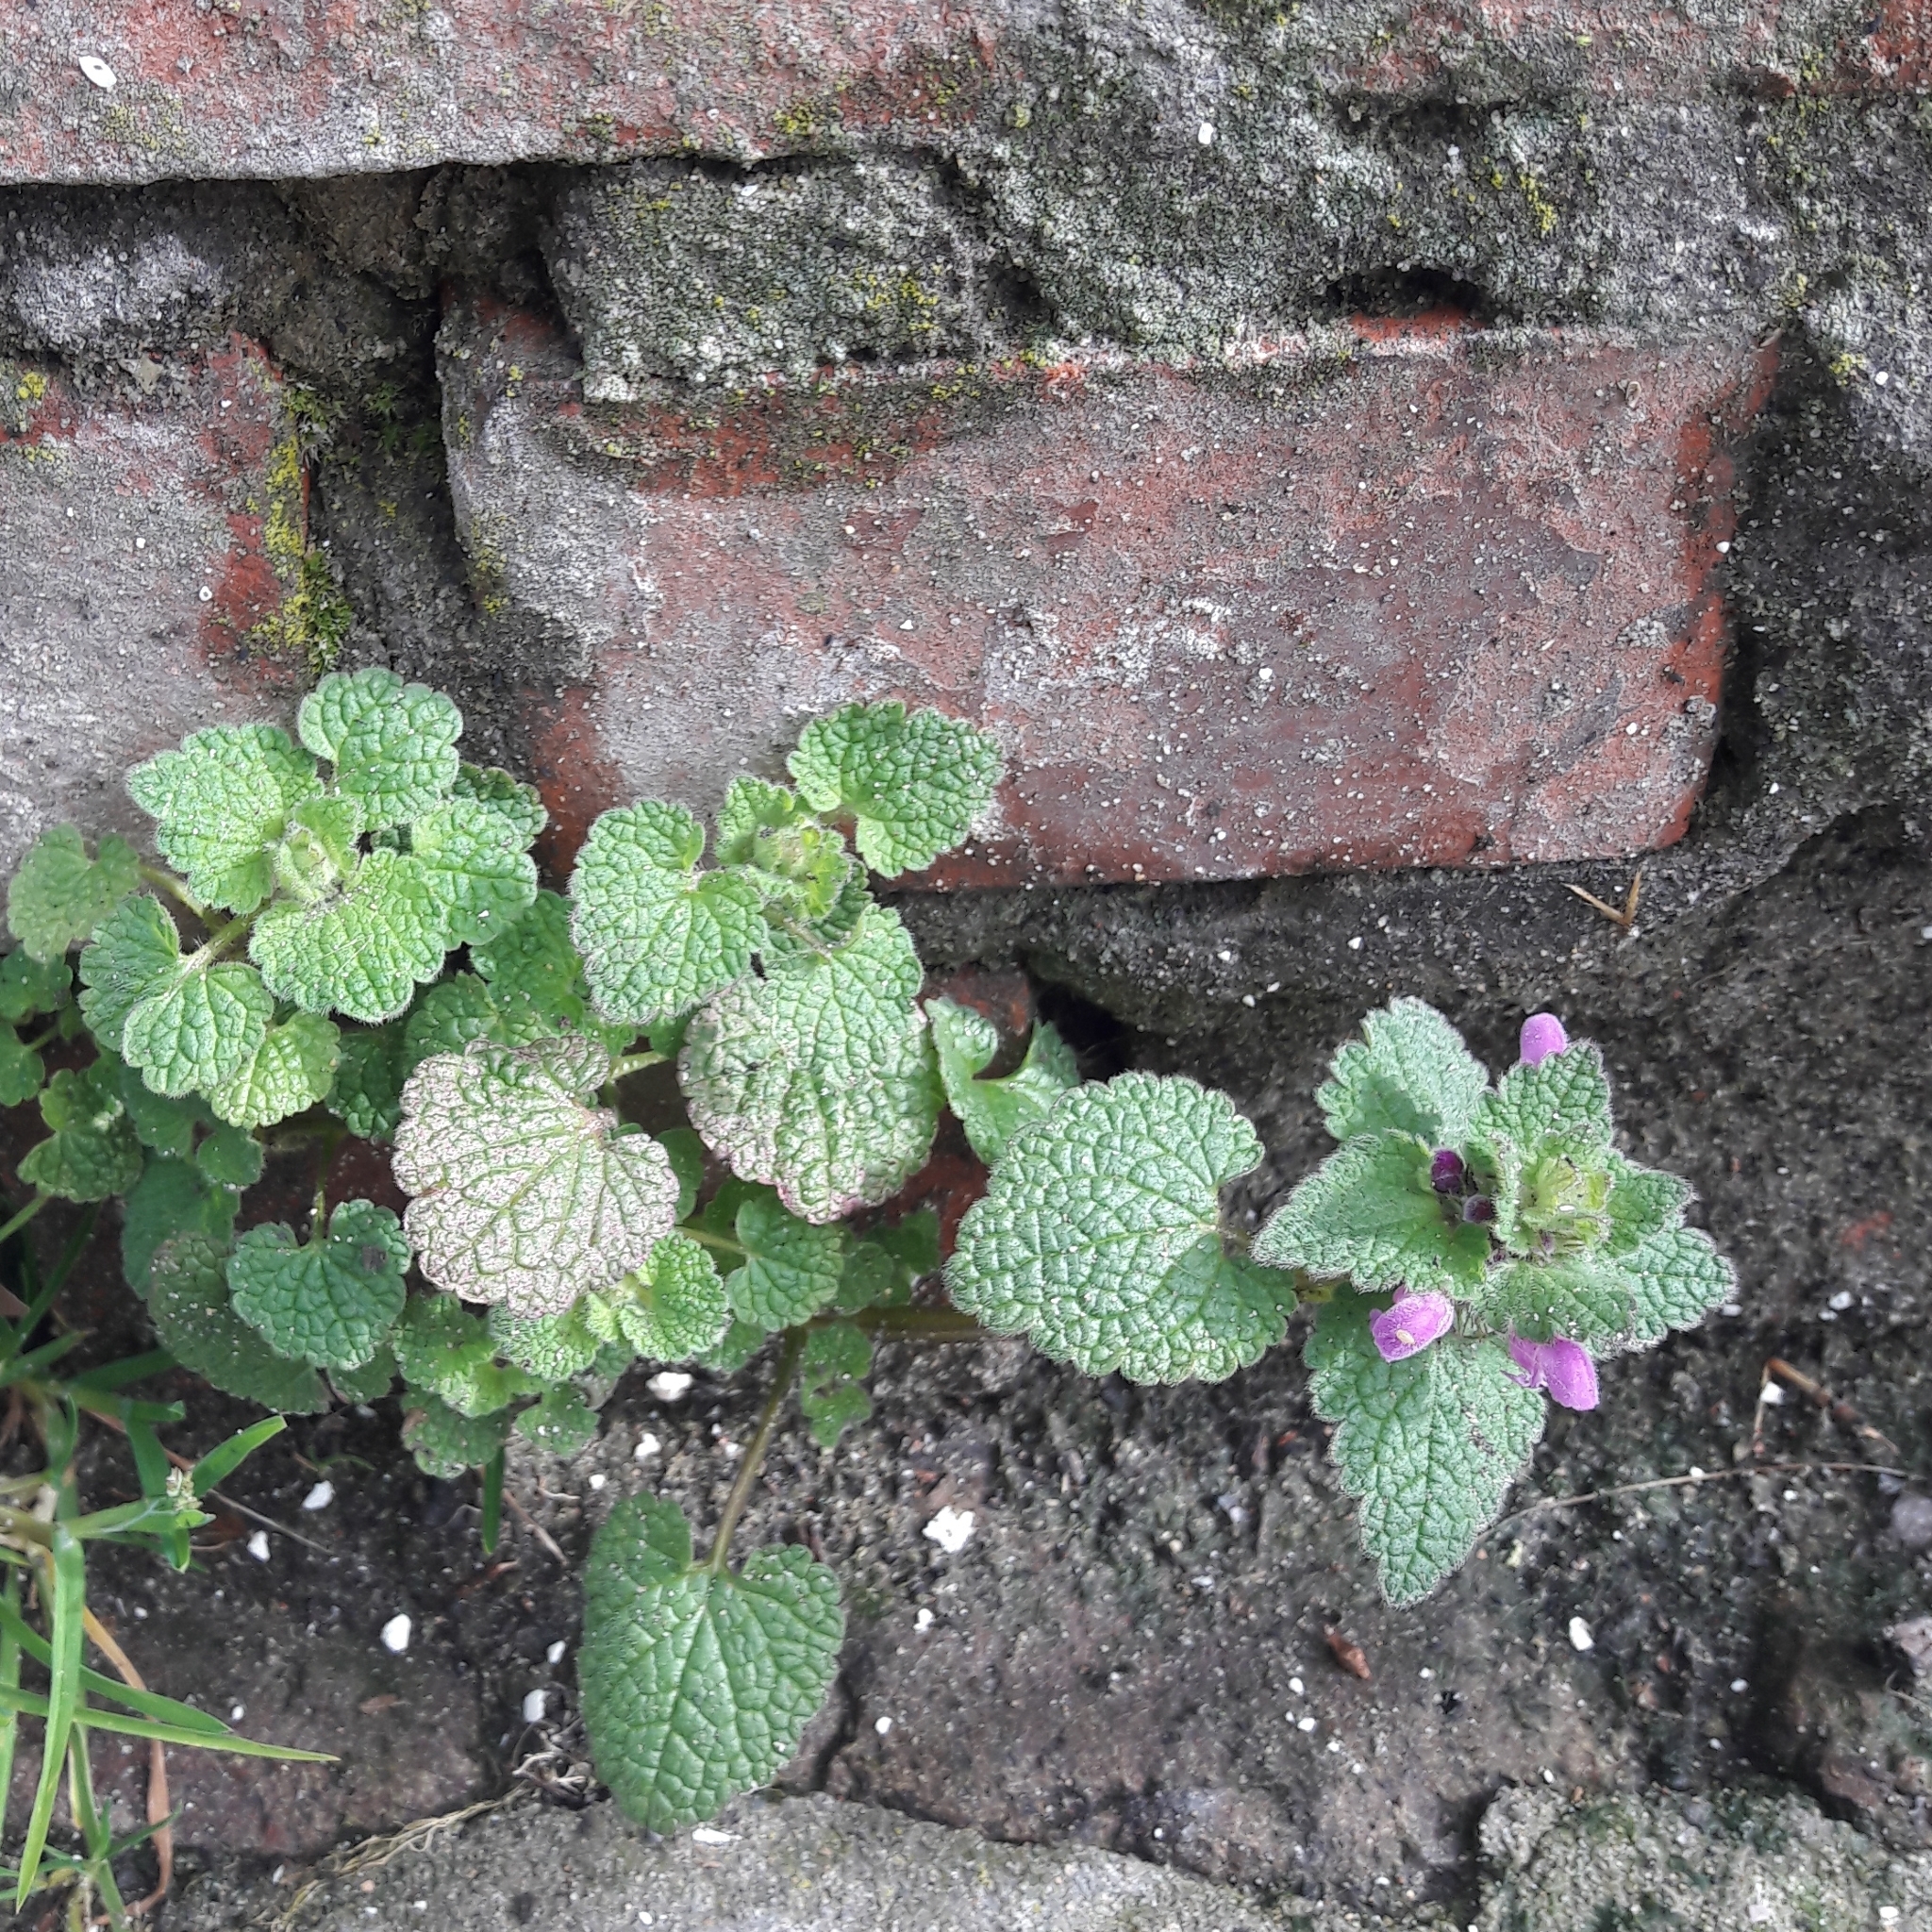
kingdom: Plantae
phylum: Tracheophyta
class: Magnoliopsida
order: Lamiales
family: Lamiaceae
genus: Lamium
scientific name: Lamium purpureum
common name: Red dead-nettle
